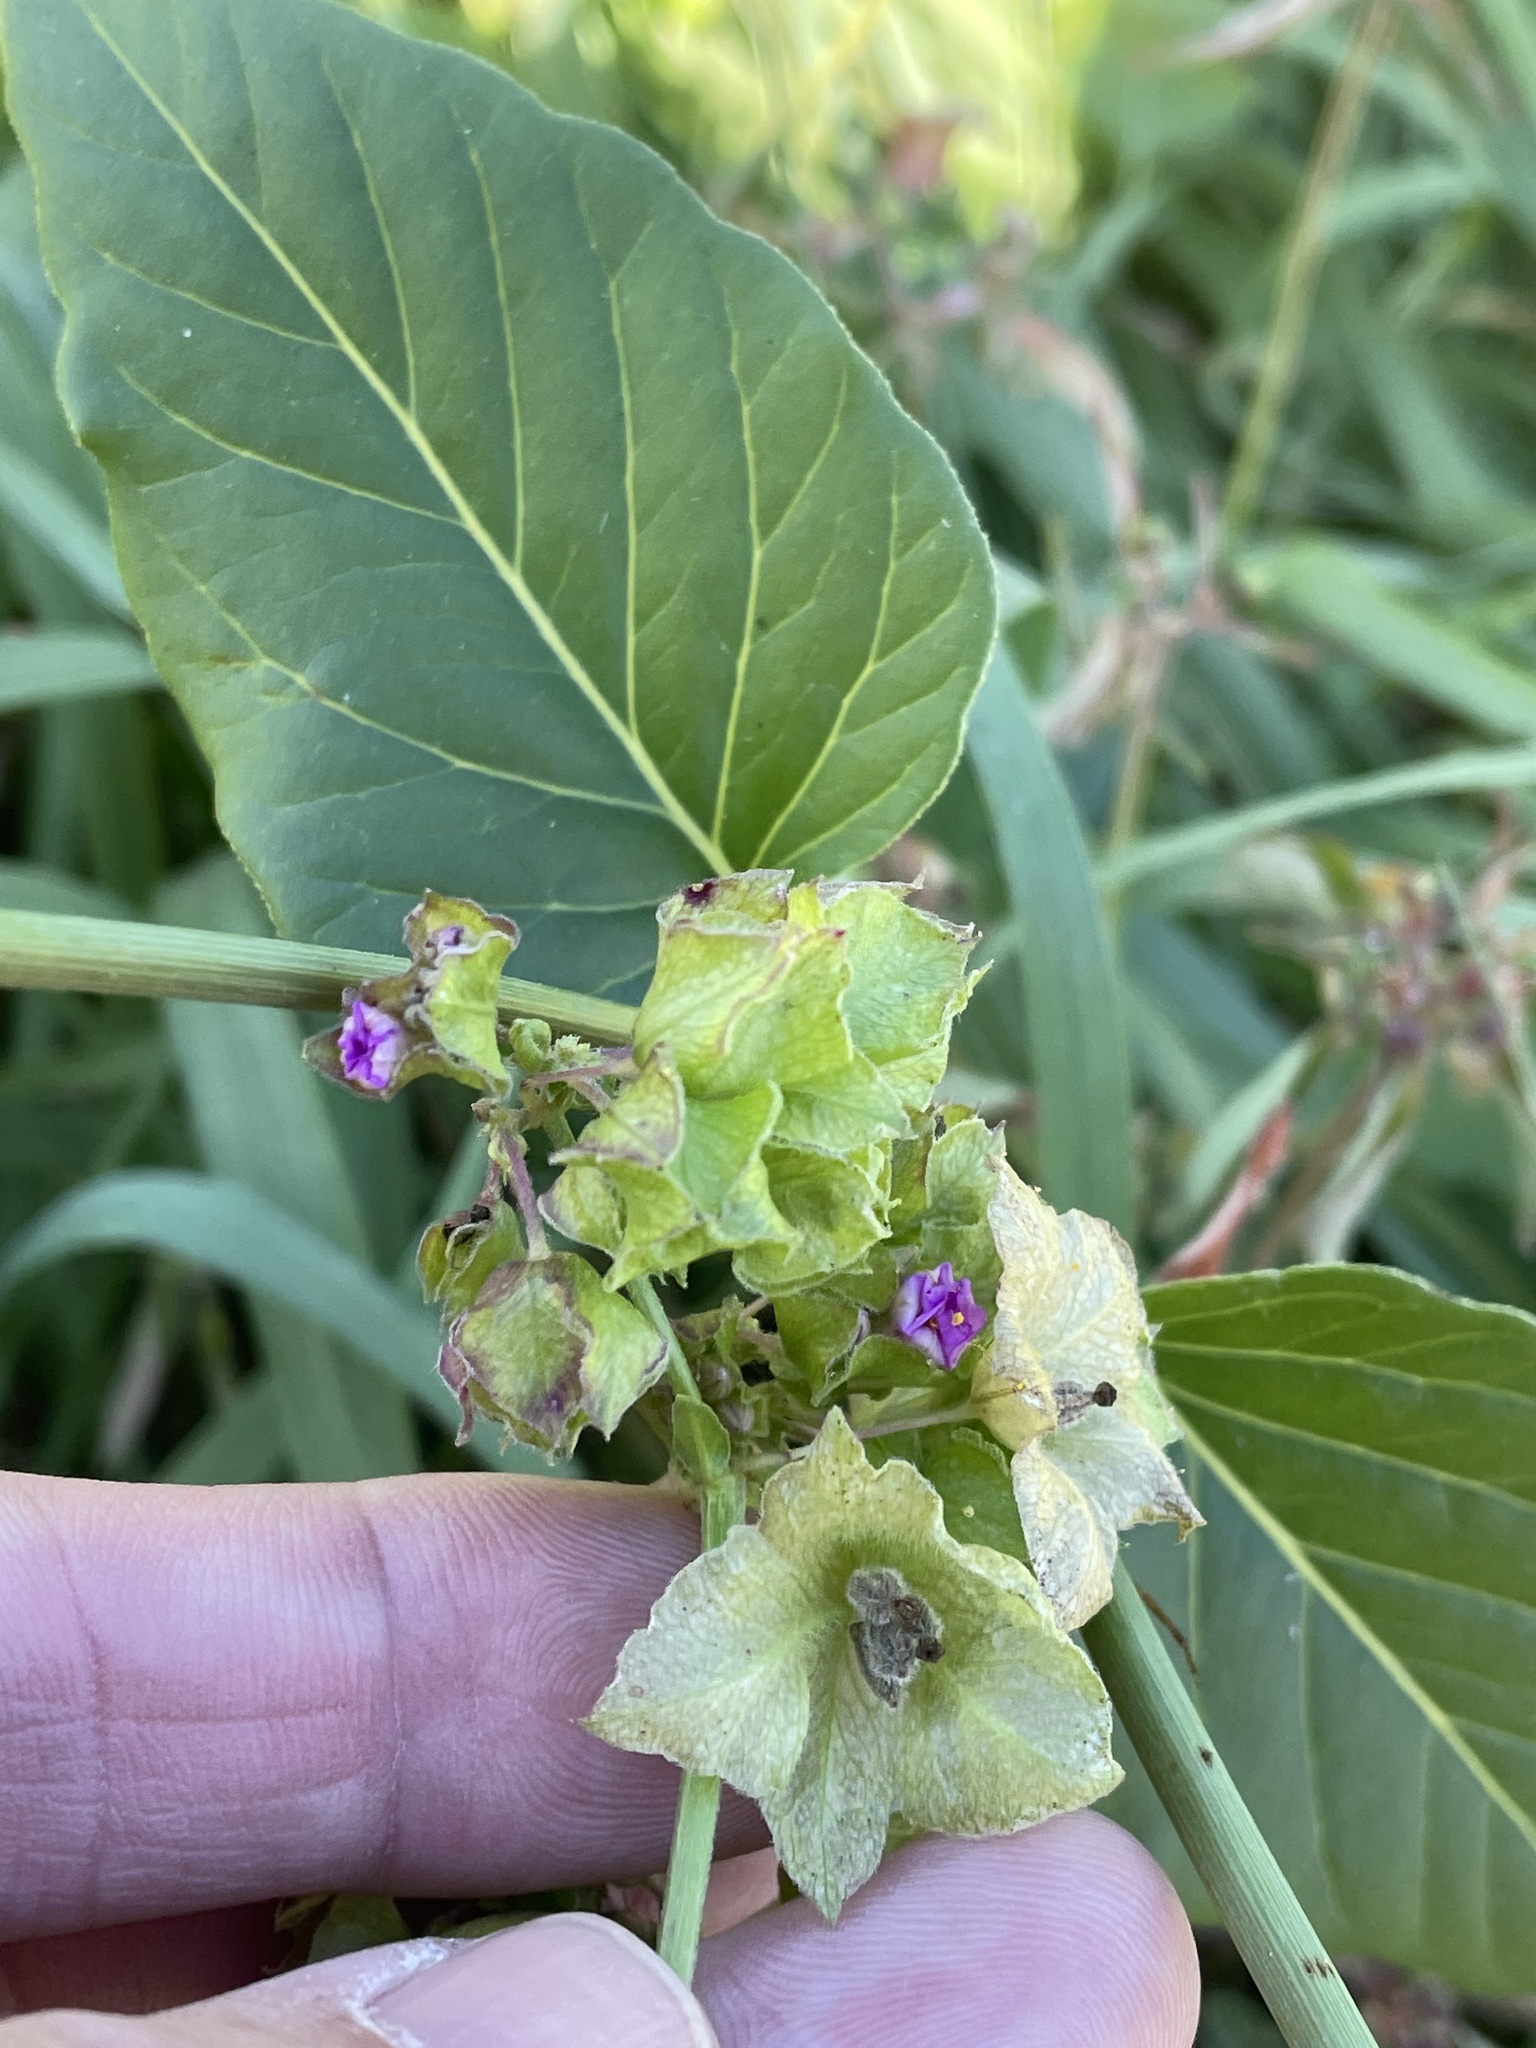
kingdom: Plantae
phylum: Tracheophyta
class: Magnoliopsida
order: Caryophyllales
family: Nyctaginaceae
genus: Mirabilis
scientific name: Mirabilis nyctaginea
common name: Umbrella wort
